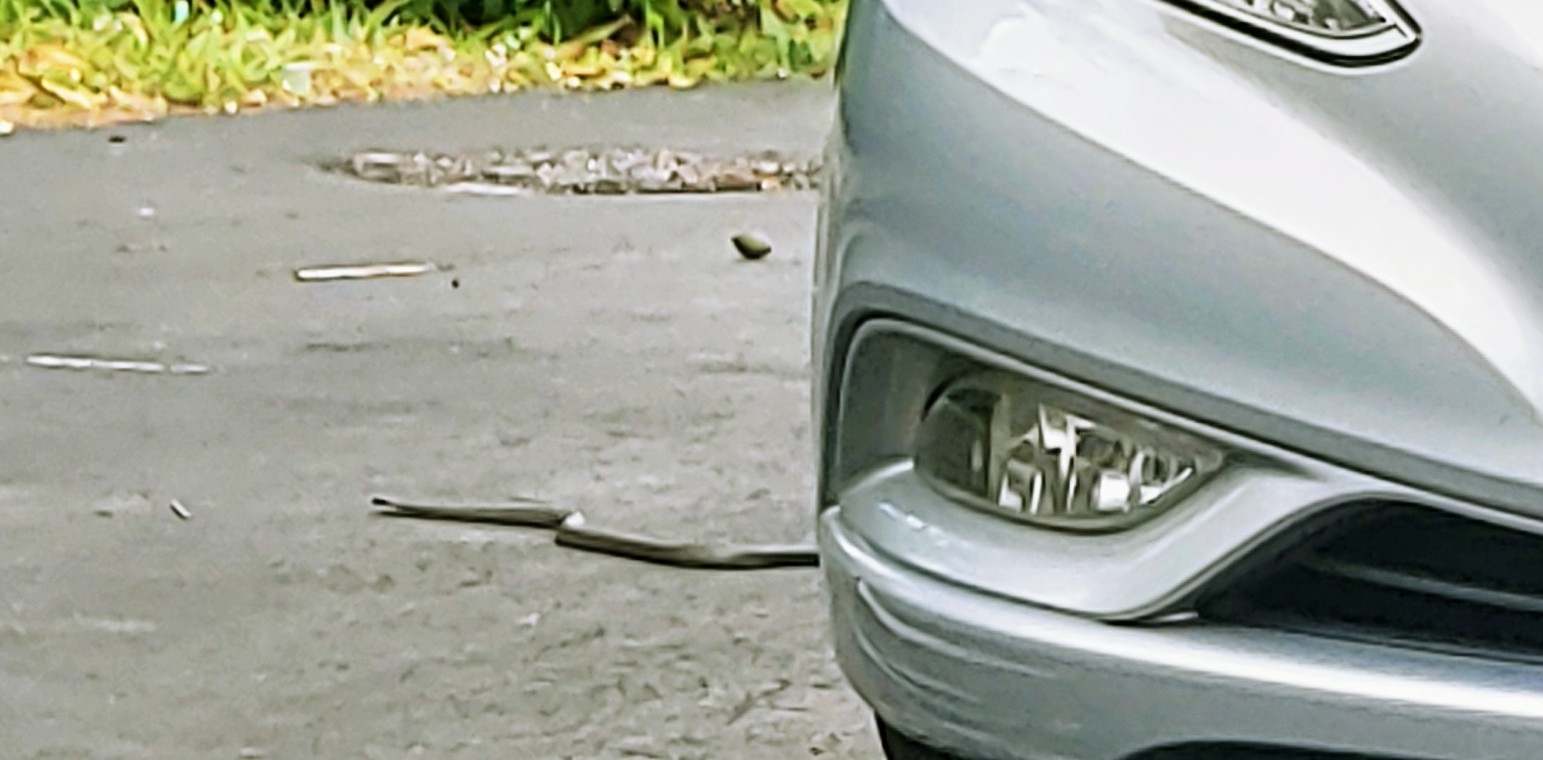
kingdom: Animalia
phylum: Chordata
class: Squamata
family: Colubridae
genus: Coluber
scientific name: Coluber constrictor
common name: Eastern racer
